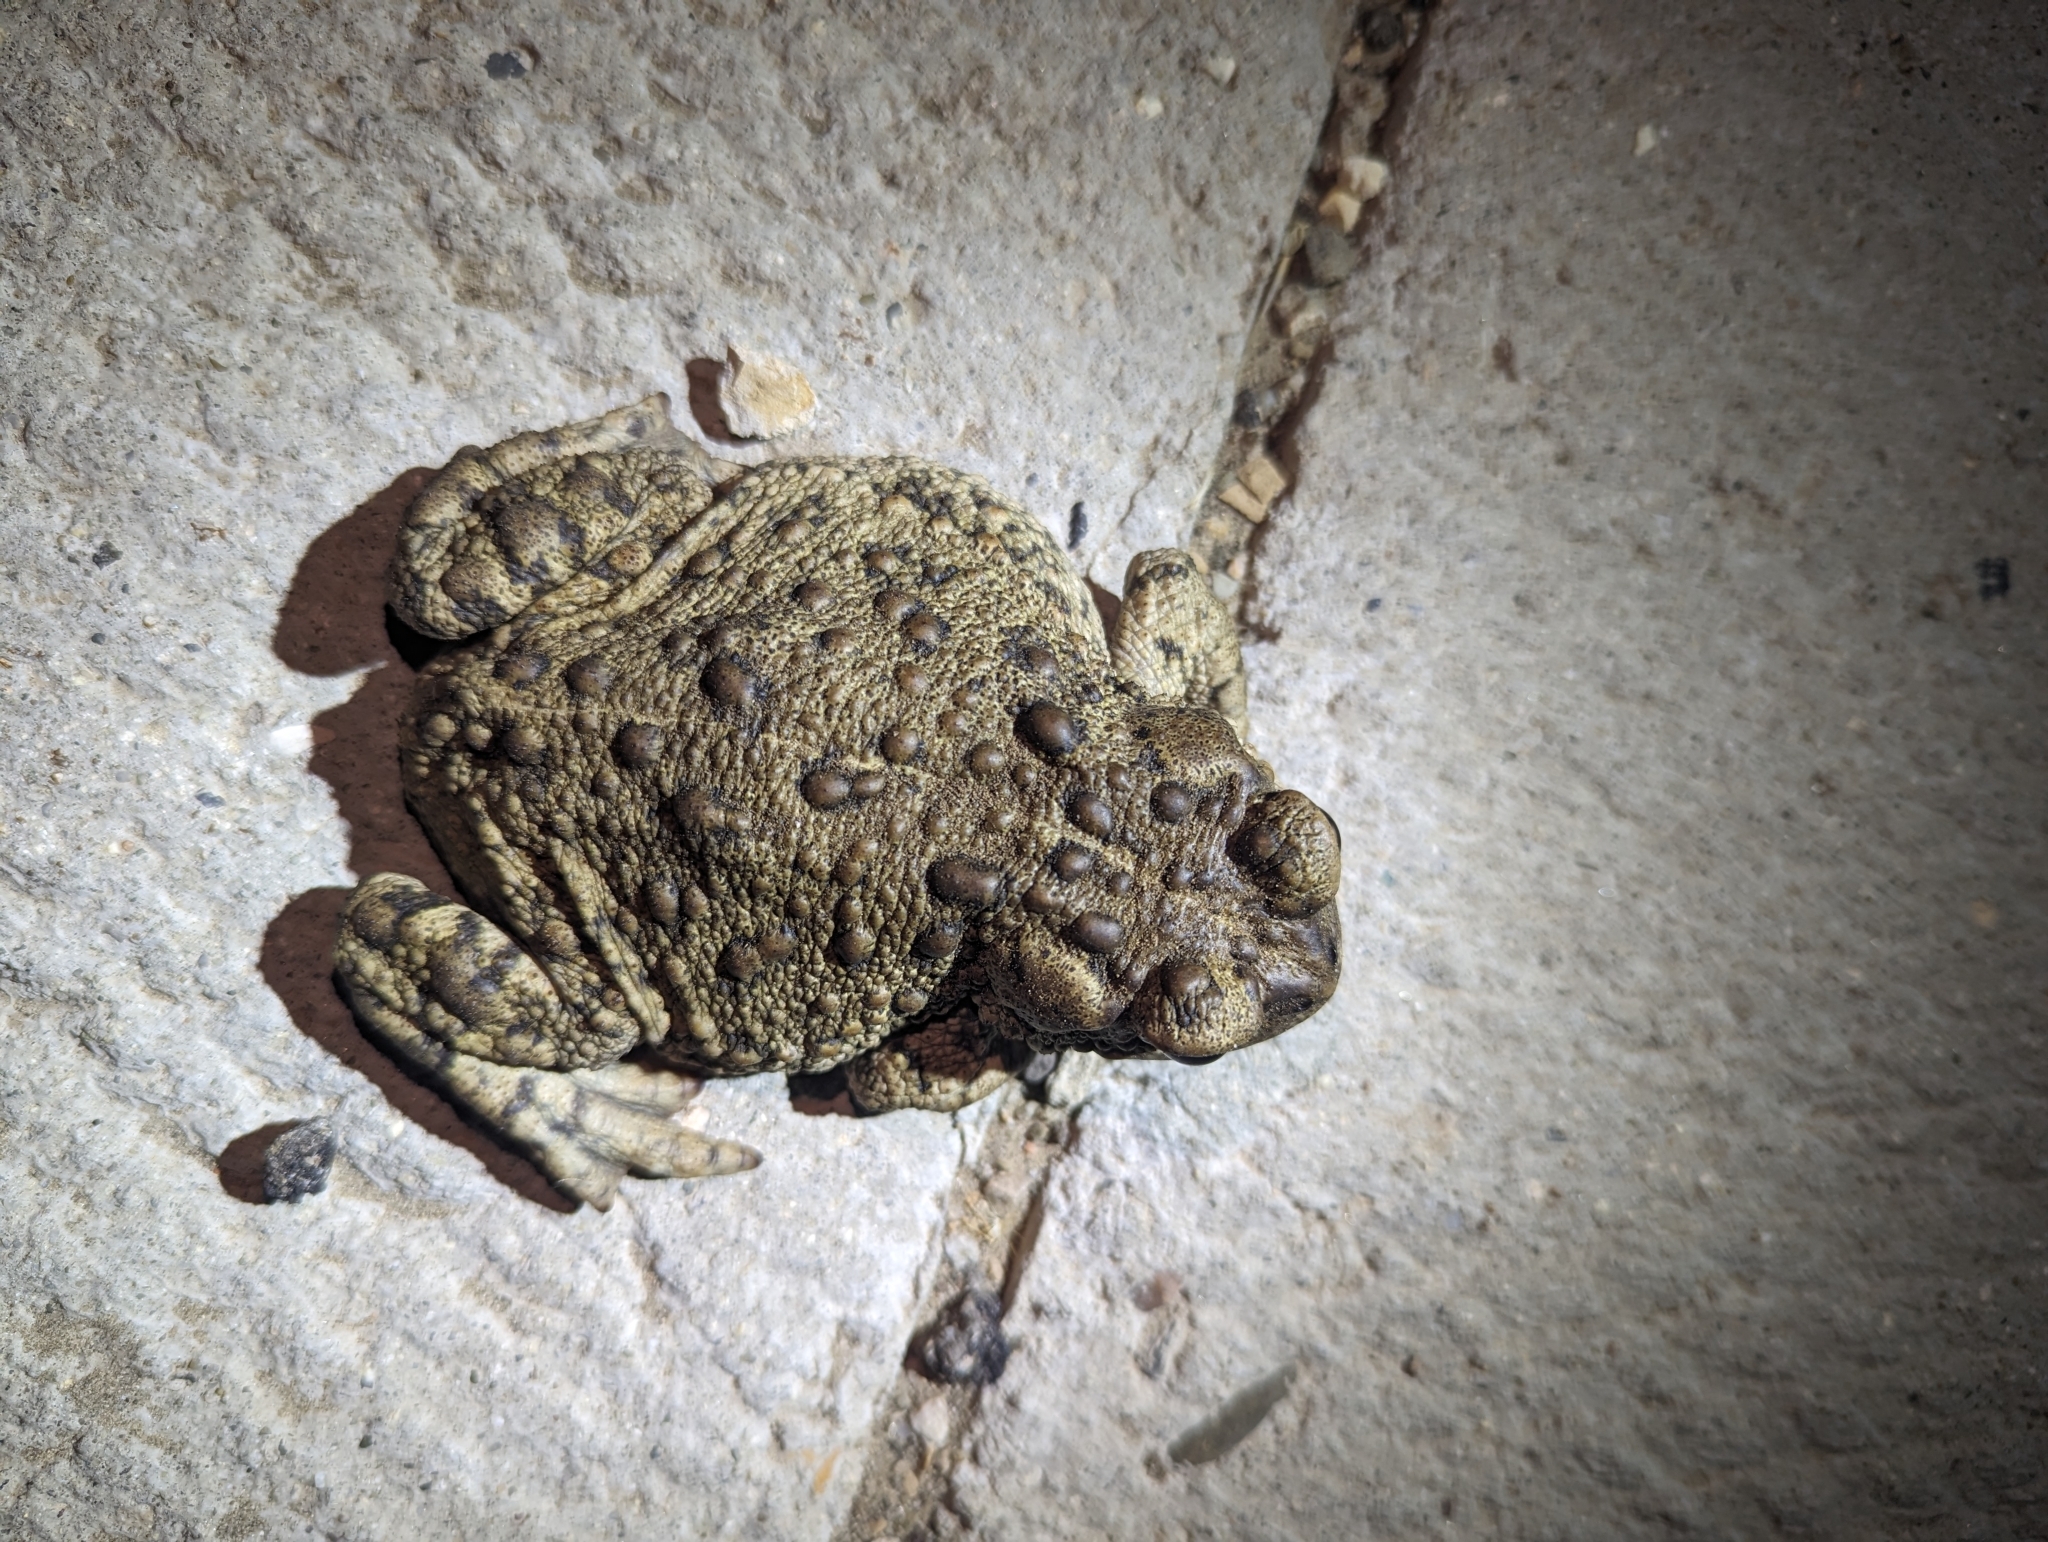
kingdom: Animalia
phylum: Chordata
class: Amphibia
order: Anura
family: Bufonidae
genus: Anaxyrus
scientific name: Anaxyrus boreas
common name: Western toad
